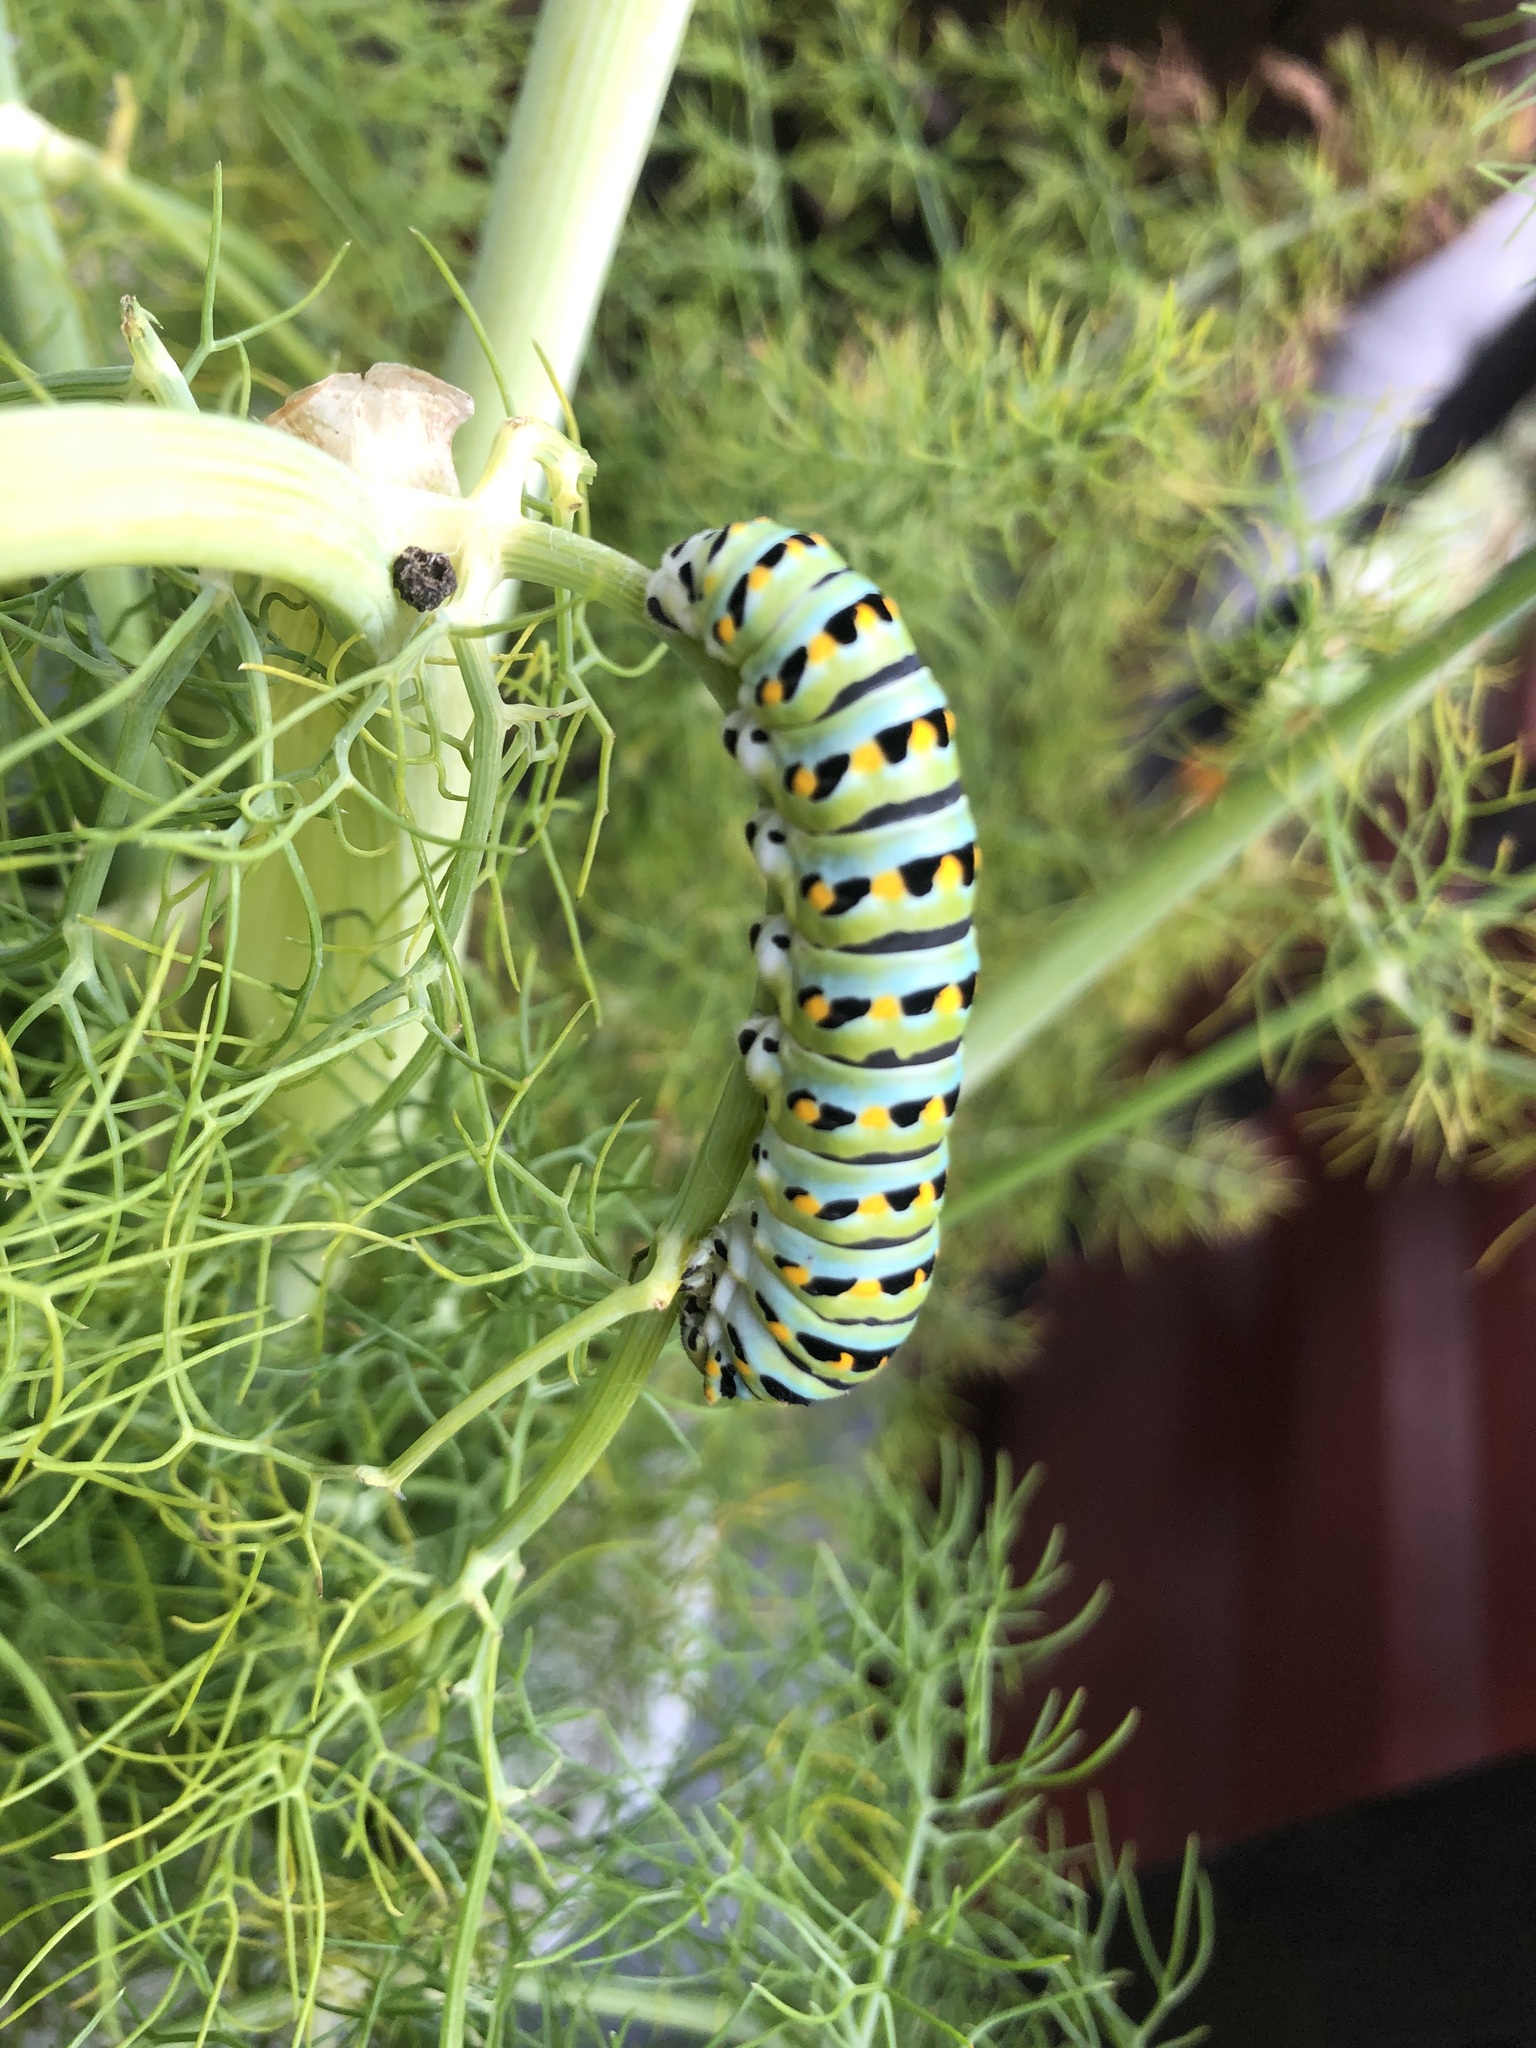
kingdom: Animalia
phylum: Arthropoda
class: Insecta
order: Lepidoptera
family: Papilionidae
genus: Papilio
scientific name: Papilio zelicaon
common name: Anise swallowtail
